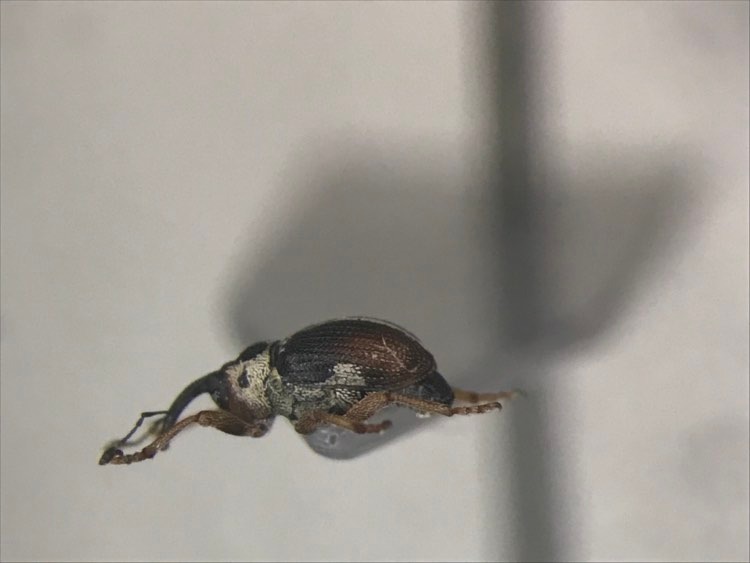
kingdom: Animalia
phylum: Arthropoda
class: Insecta
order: Coleoptera
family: Curculionidae
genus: Ceutorhynchus
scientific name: Ceutorhynchus semirufus
